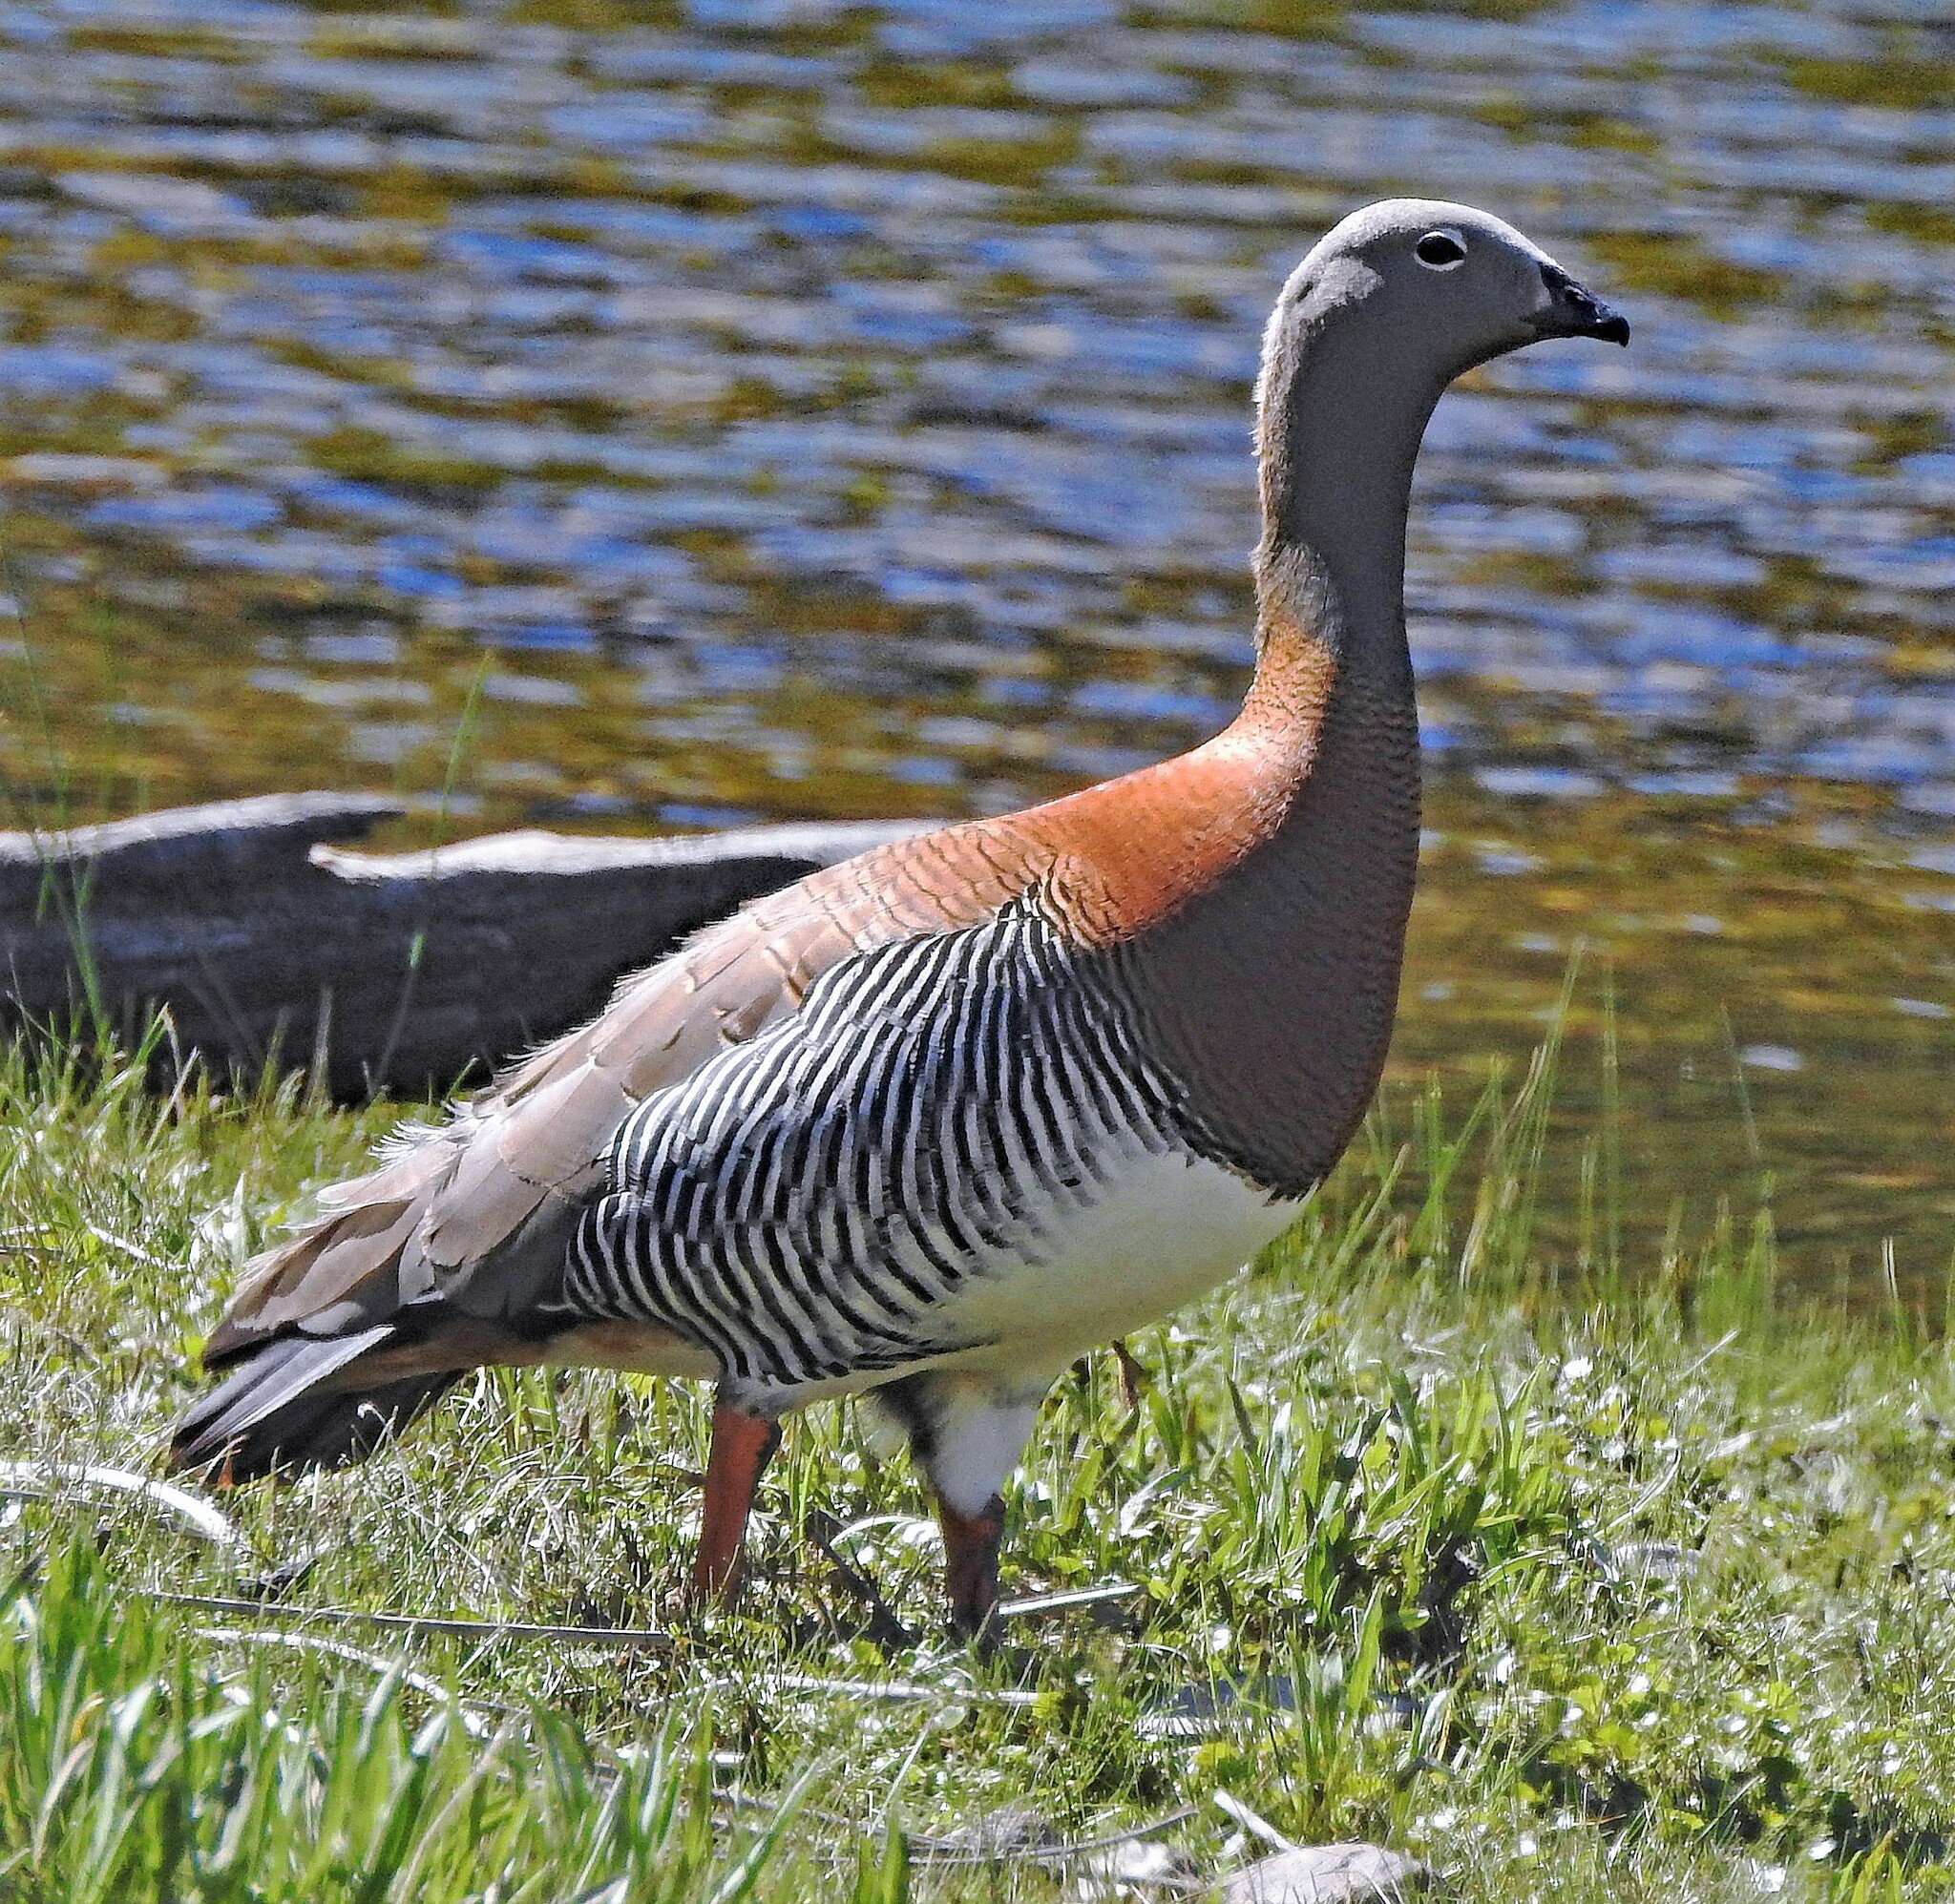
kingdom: Animalia
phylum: Chordata
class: Aves
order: Anseriformes
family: Anatidae
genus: Chloephaga
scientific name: Chloephaga poliocephala
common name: Ashy-headed goose
